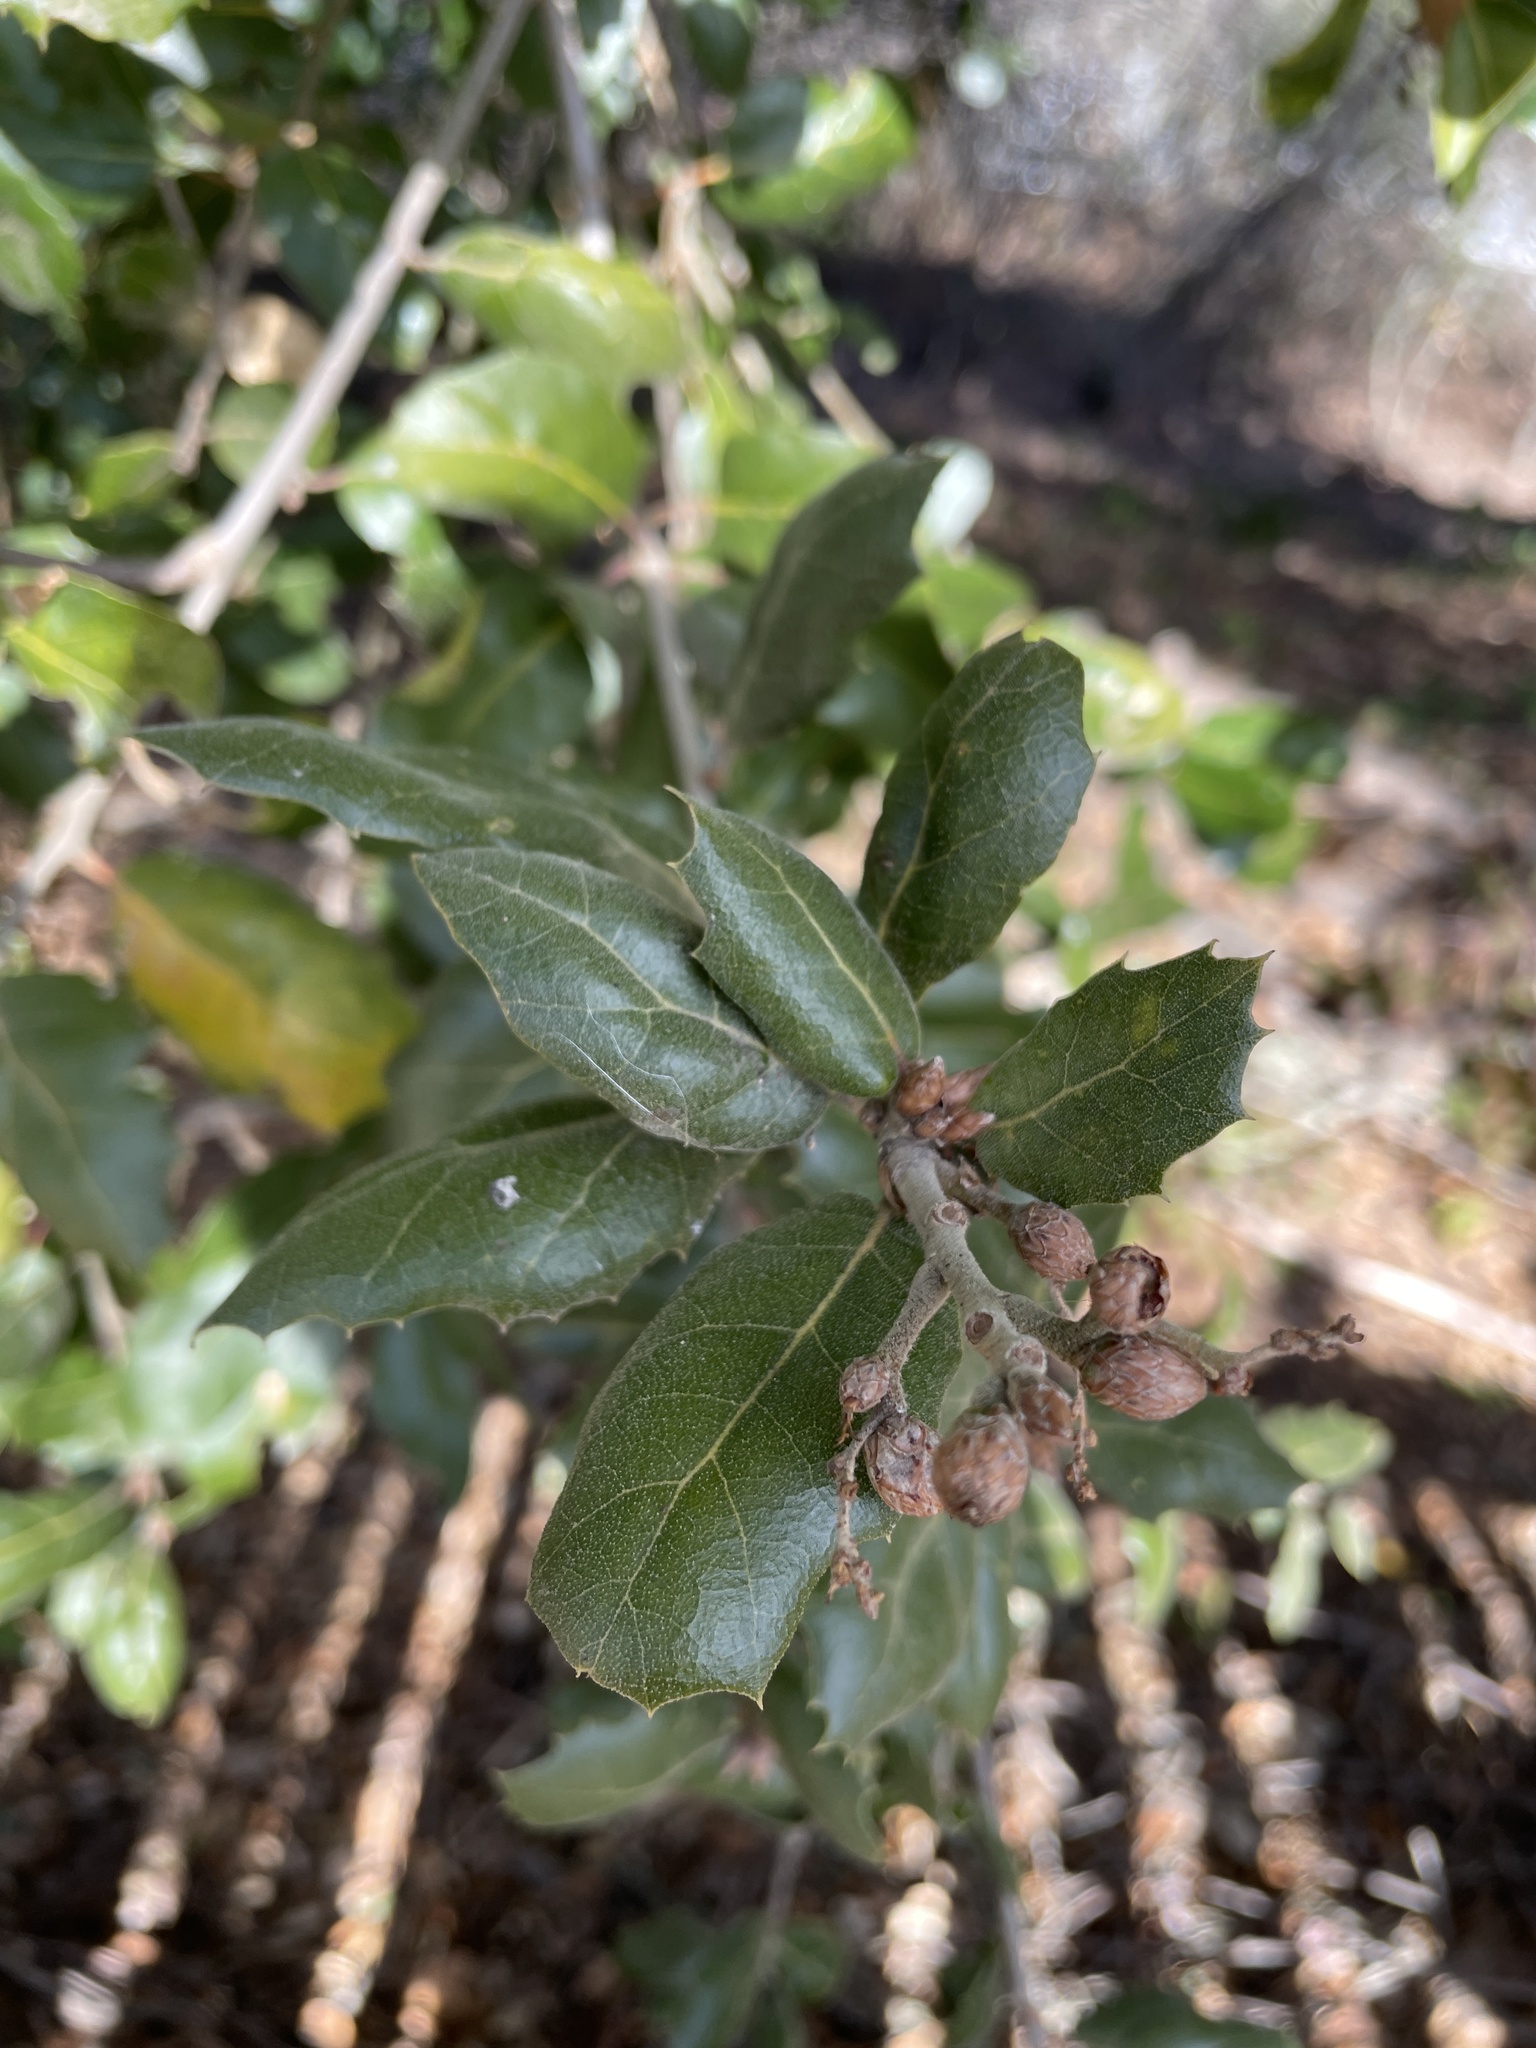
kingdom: Plantae
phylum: Tracheophyta
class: Magnoliopsida
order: Fagales
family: Fagaceae
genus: Quercus
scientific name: Quercus agrifolia
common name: California live oak
